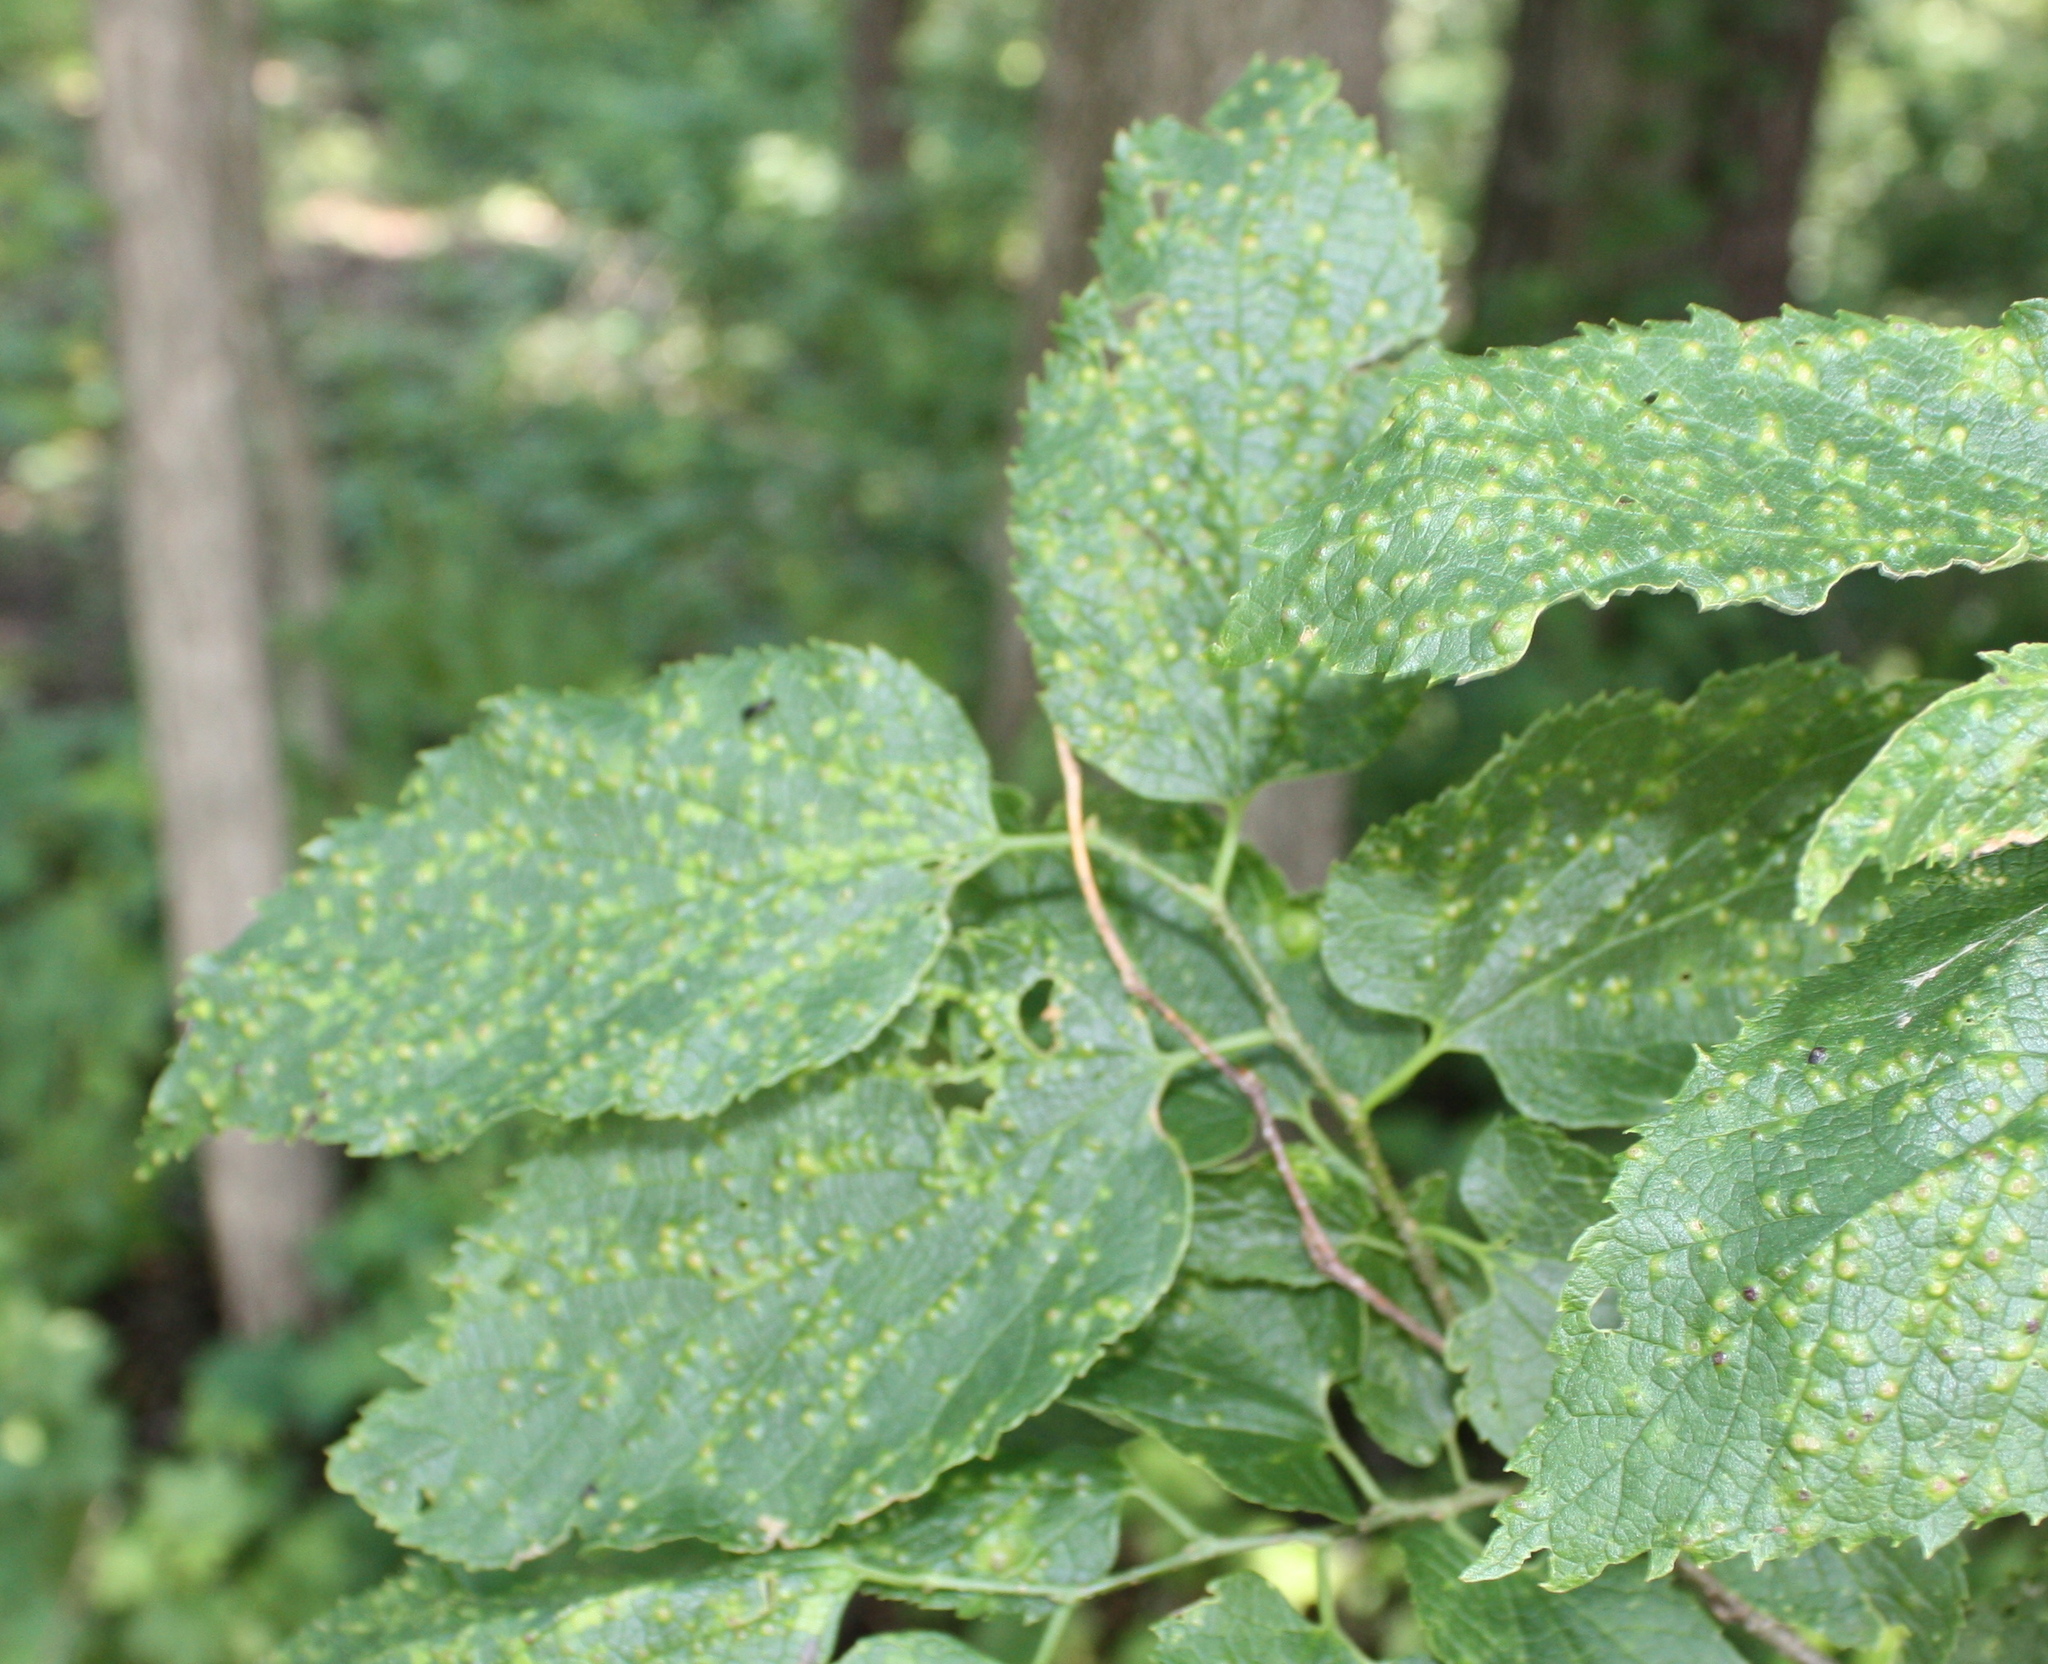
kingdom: Plantae
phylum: Tracheophyta
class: Magnoliopsida
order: Rosales
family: Cannabaceae
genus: Celtis
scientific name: Celtis occidentalis
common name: Common hackberry
